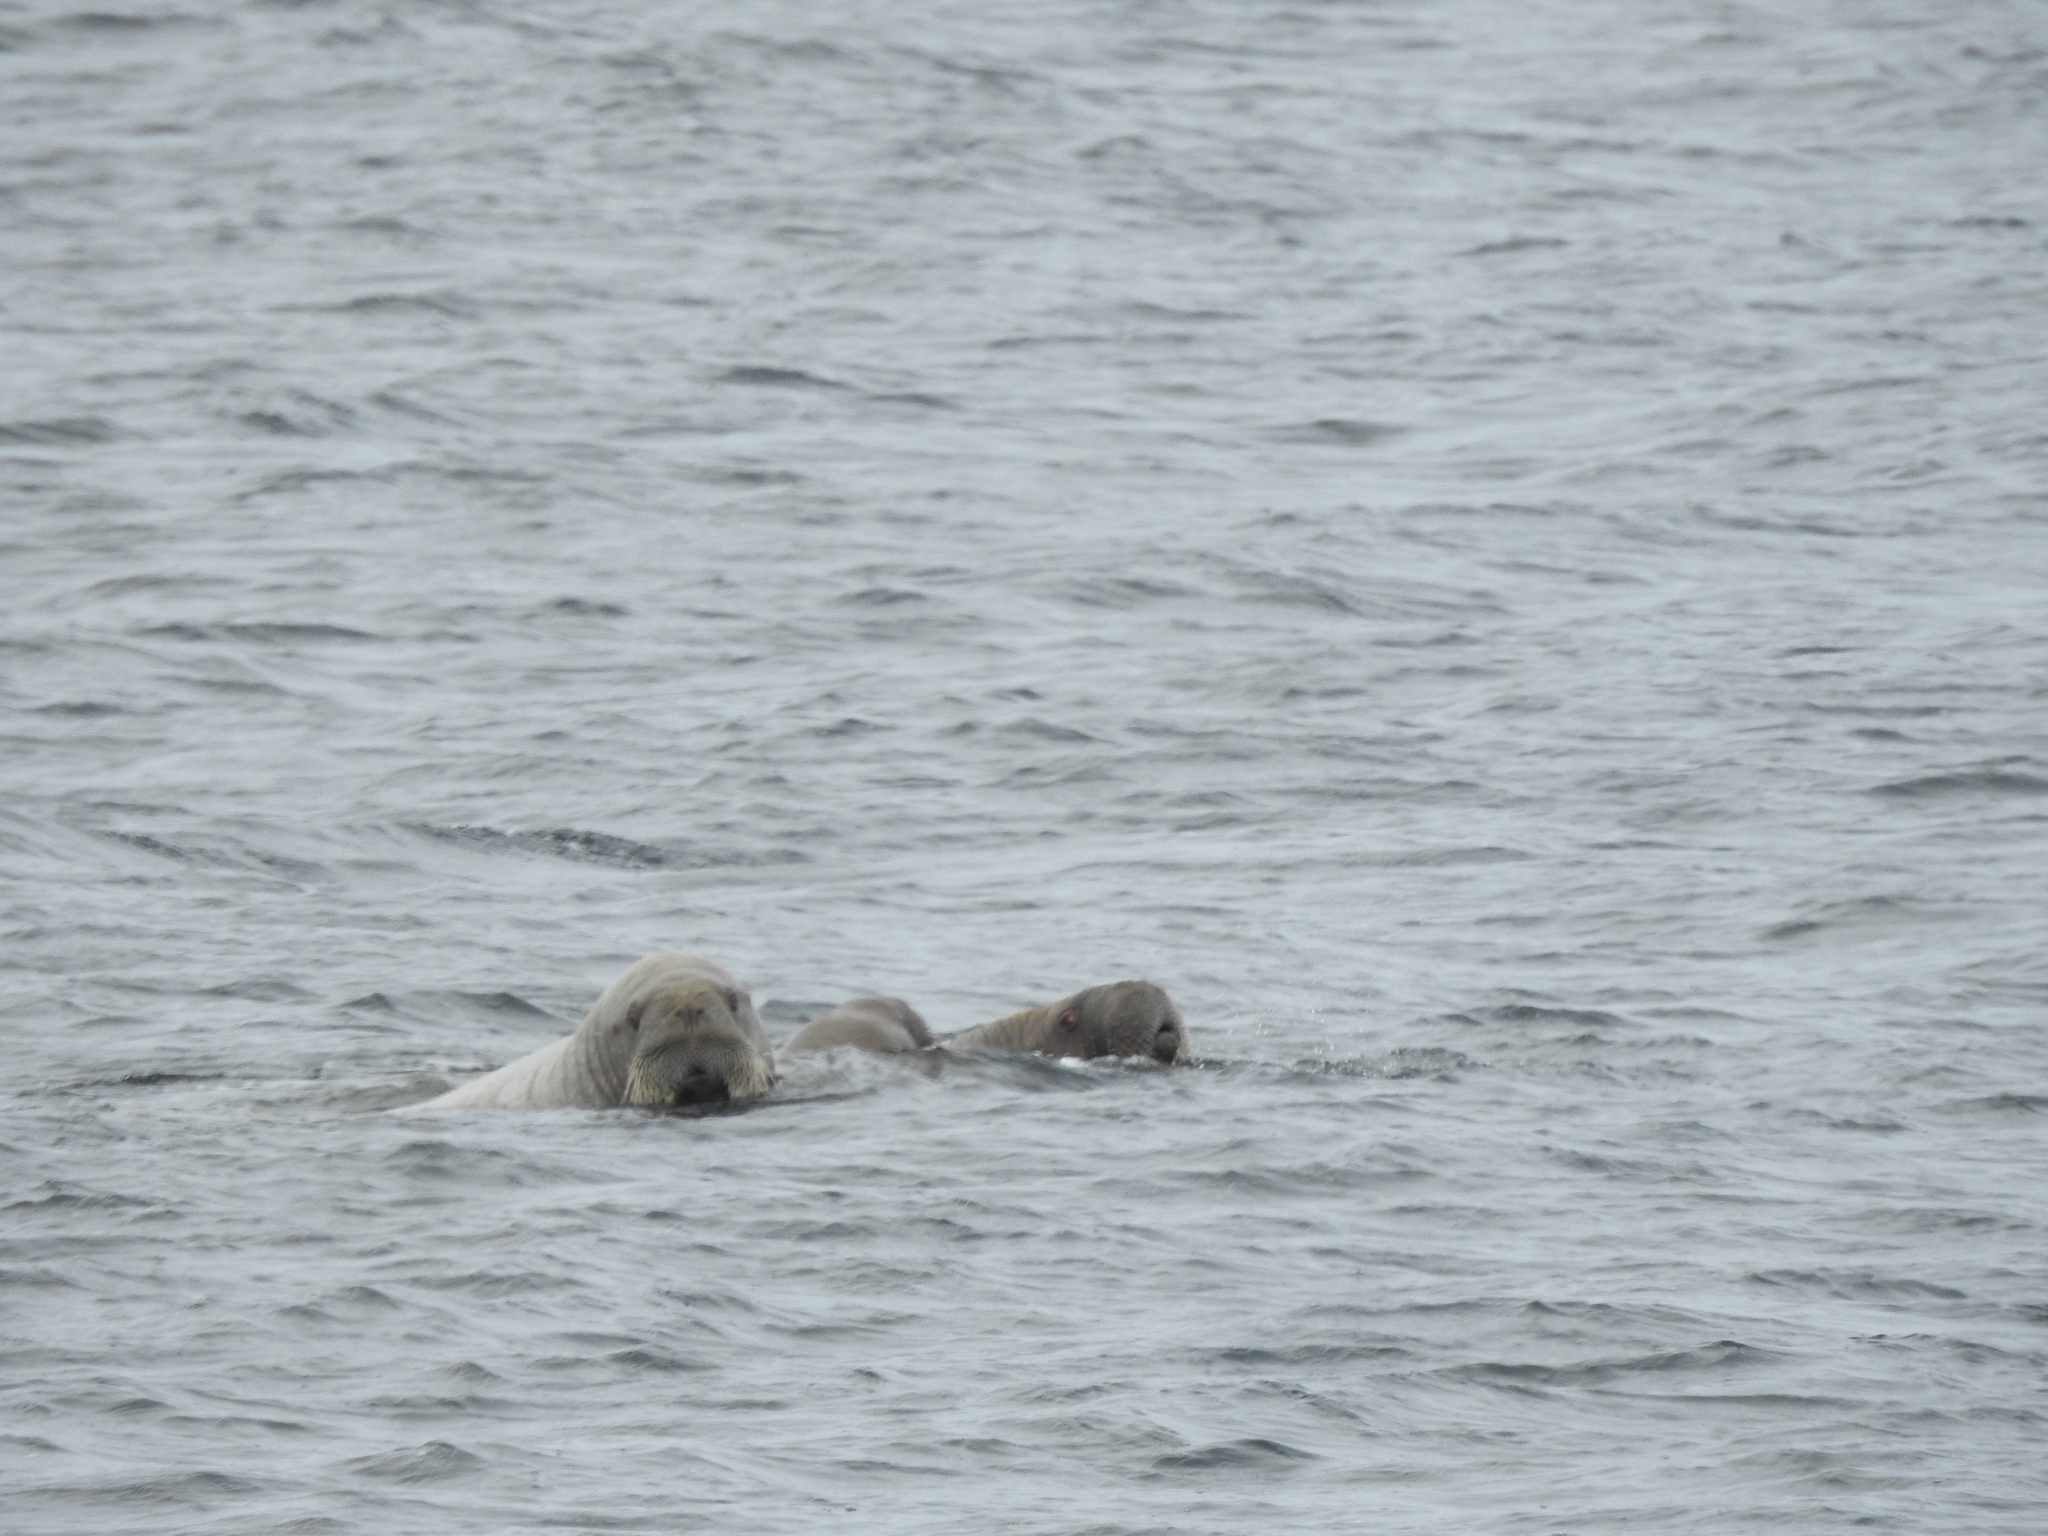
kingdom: Animalia
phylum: Chordata
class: Mammalia
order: Carnivora
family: Odobenidae
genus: Odobenus
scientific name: Odobenus rosmarus
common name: Walrus
